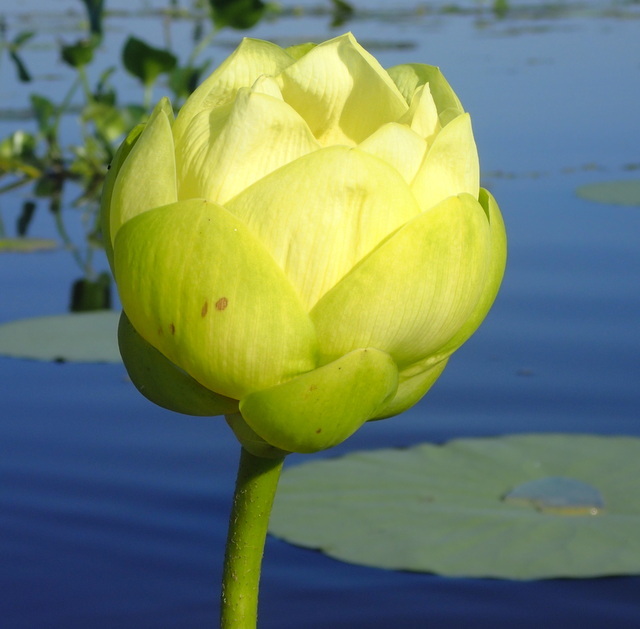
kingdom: Plantae
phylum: Tracheophyta
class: Magnoliopsida
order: Proteales
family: Nelumbonaceae
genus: Nelumbo
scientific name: Nelumbo lutea
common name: American lotus
